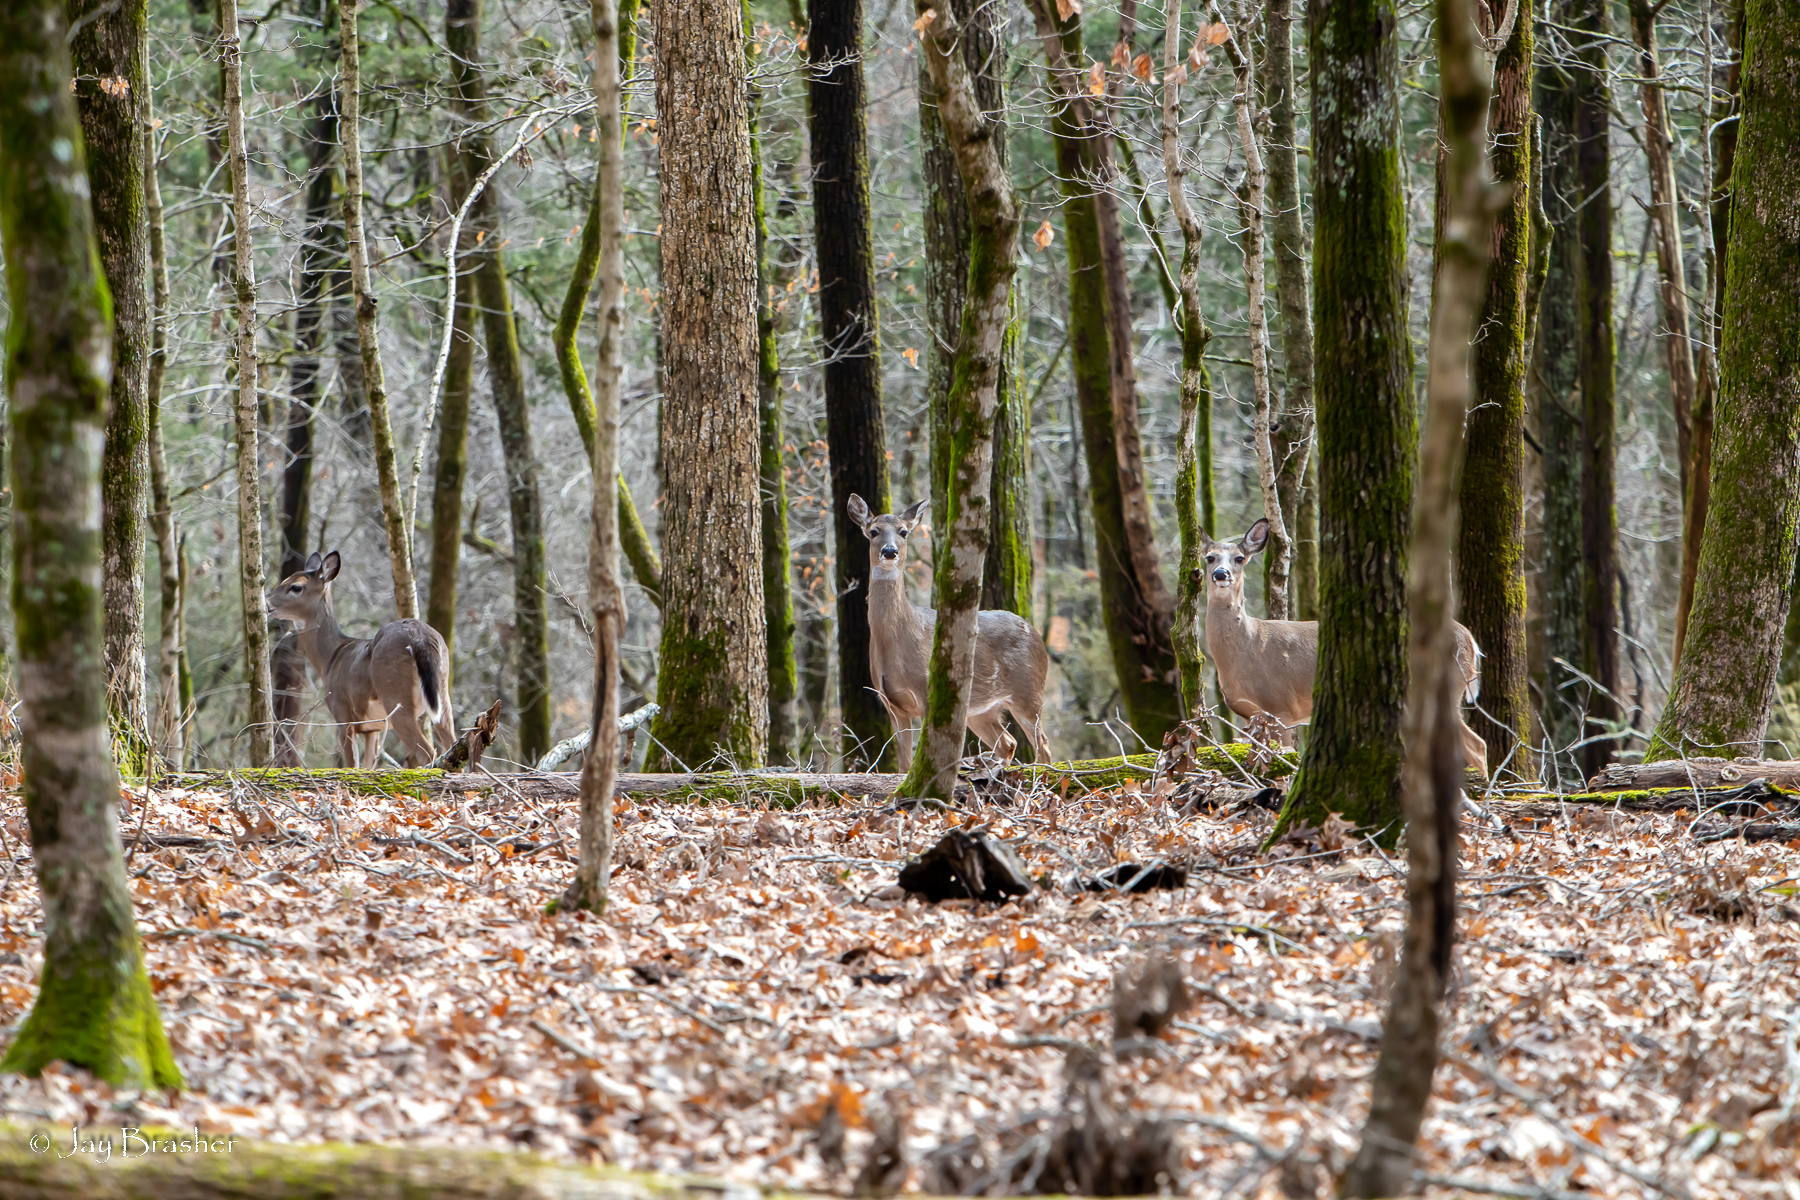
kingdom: Animalia
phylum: Chordata
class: Mammalia
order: Artiodactyla
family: Cervidae
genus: Odocoileus
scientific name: Odocoileus virginianus
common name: White-tailed deer
